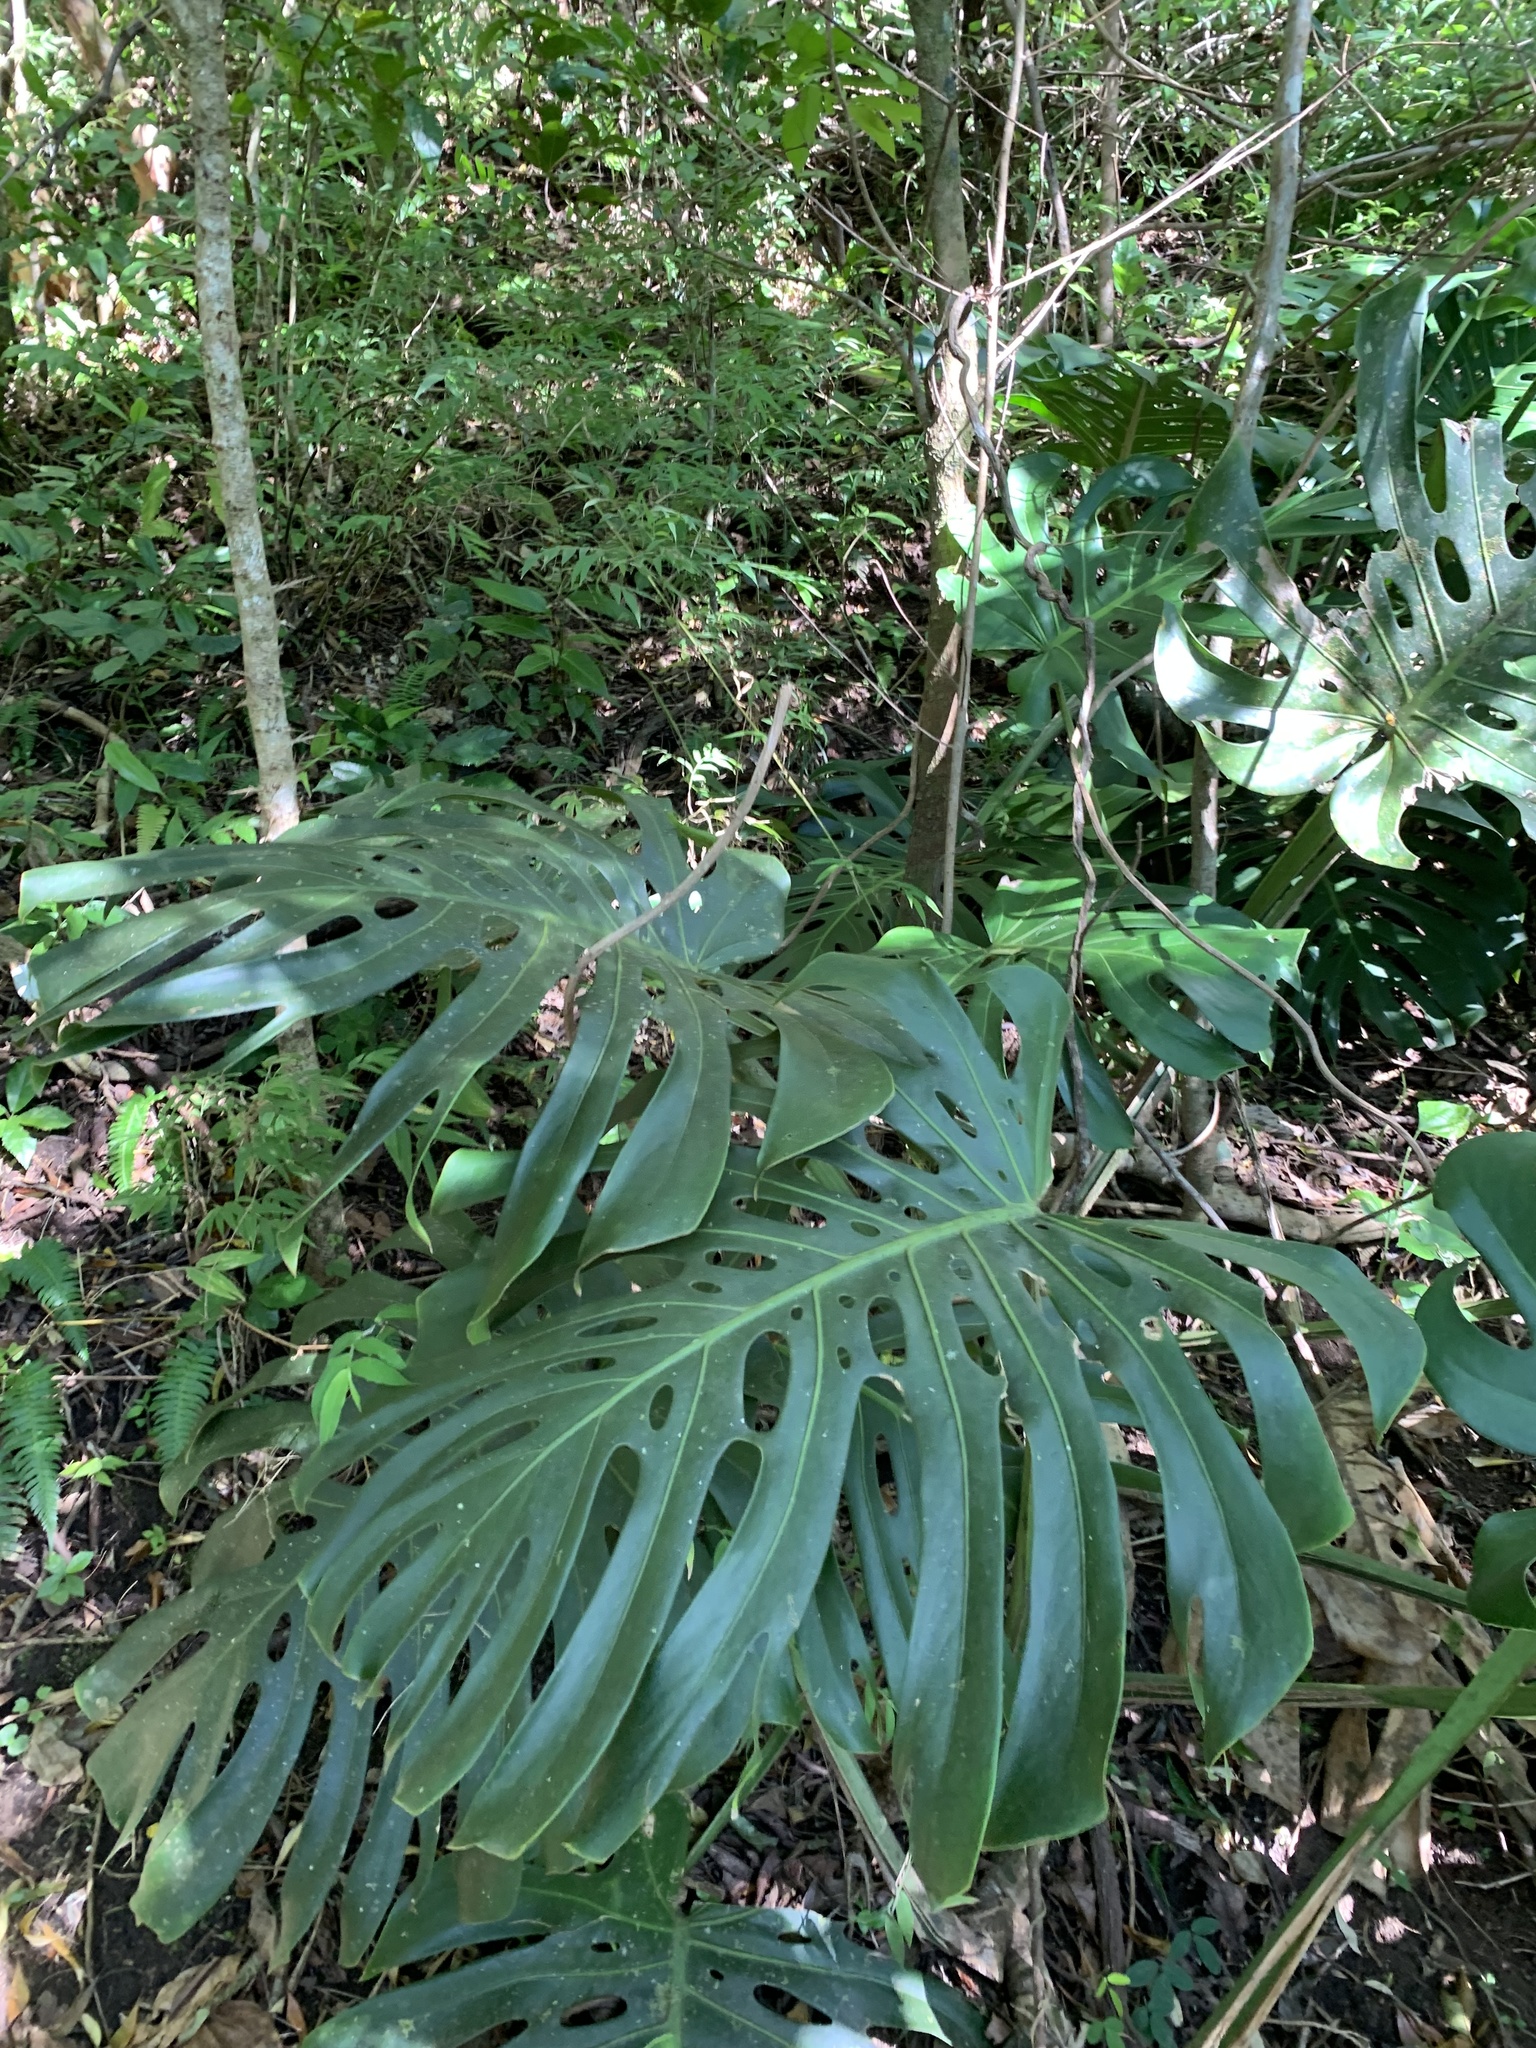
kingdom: Plantae
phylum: Tracheophyta
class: Liliopsida
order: Alismatales
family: Araceae
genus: Monstera
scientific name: Monstera deliciosa
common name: Cut-leaf-philodendron
